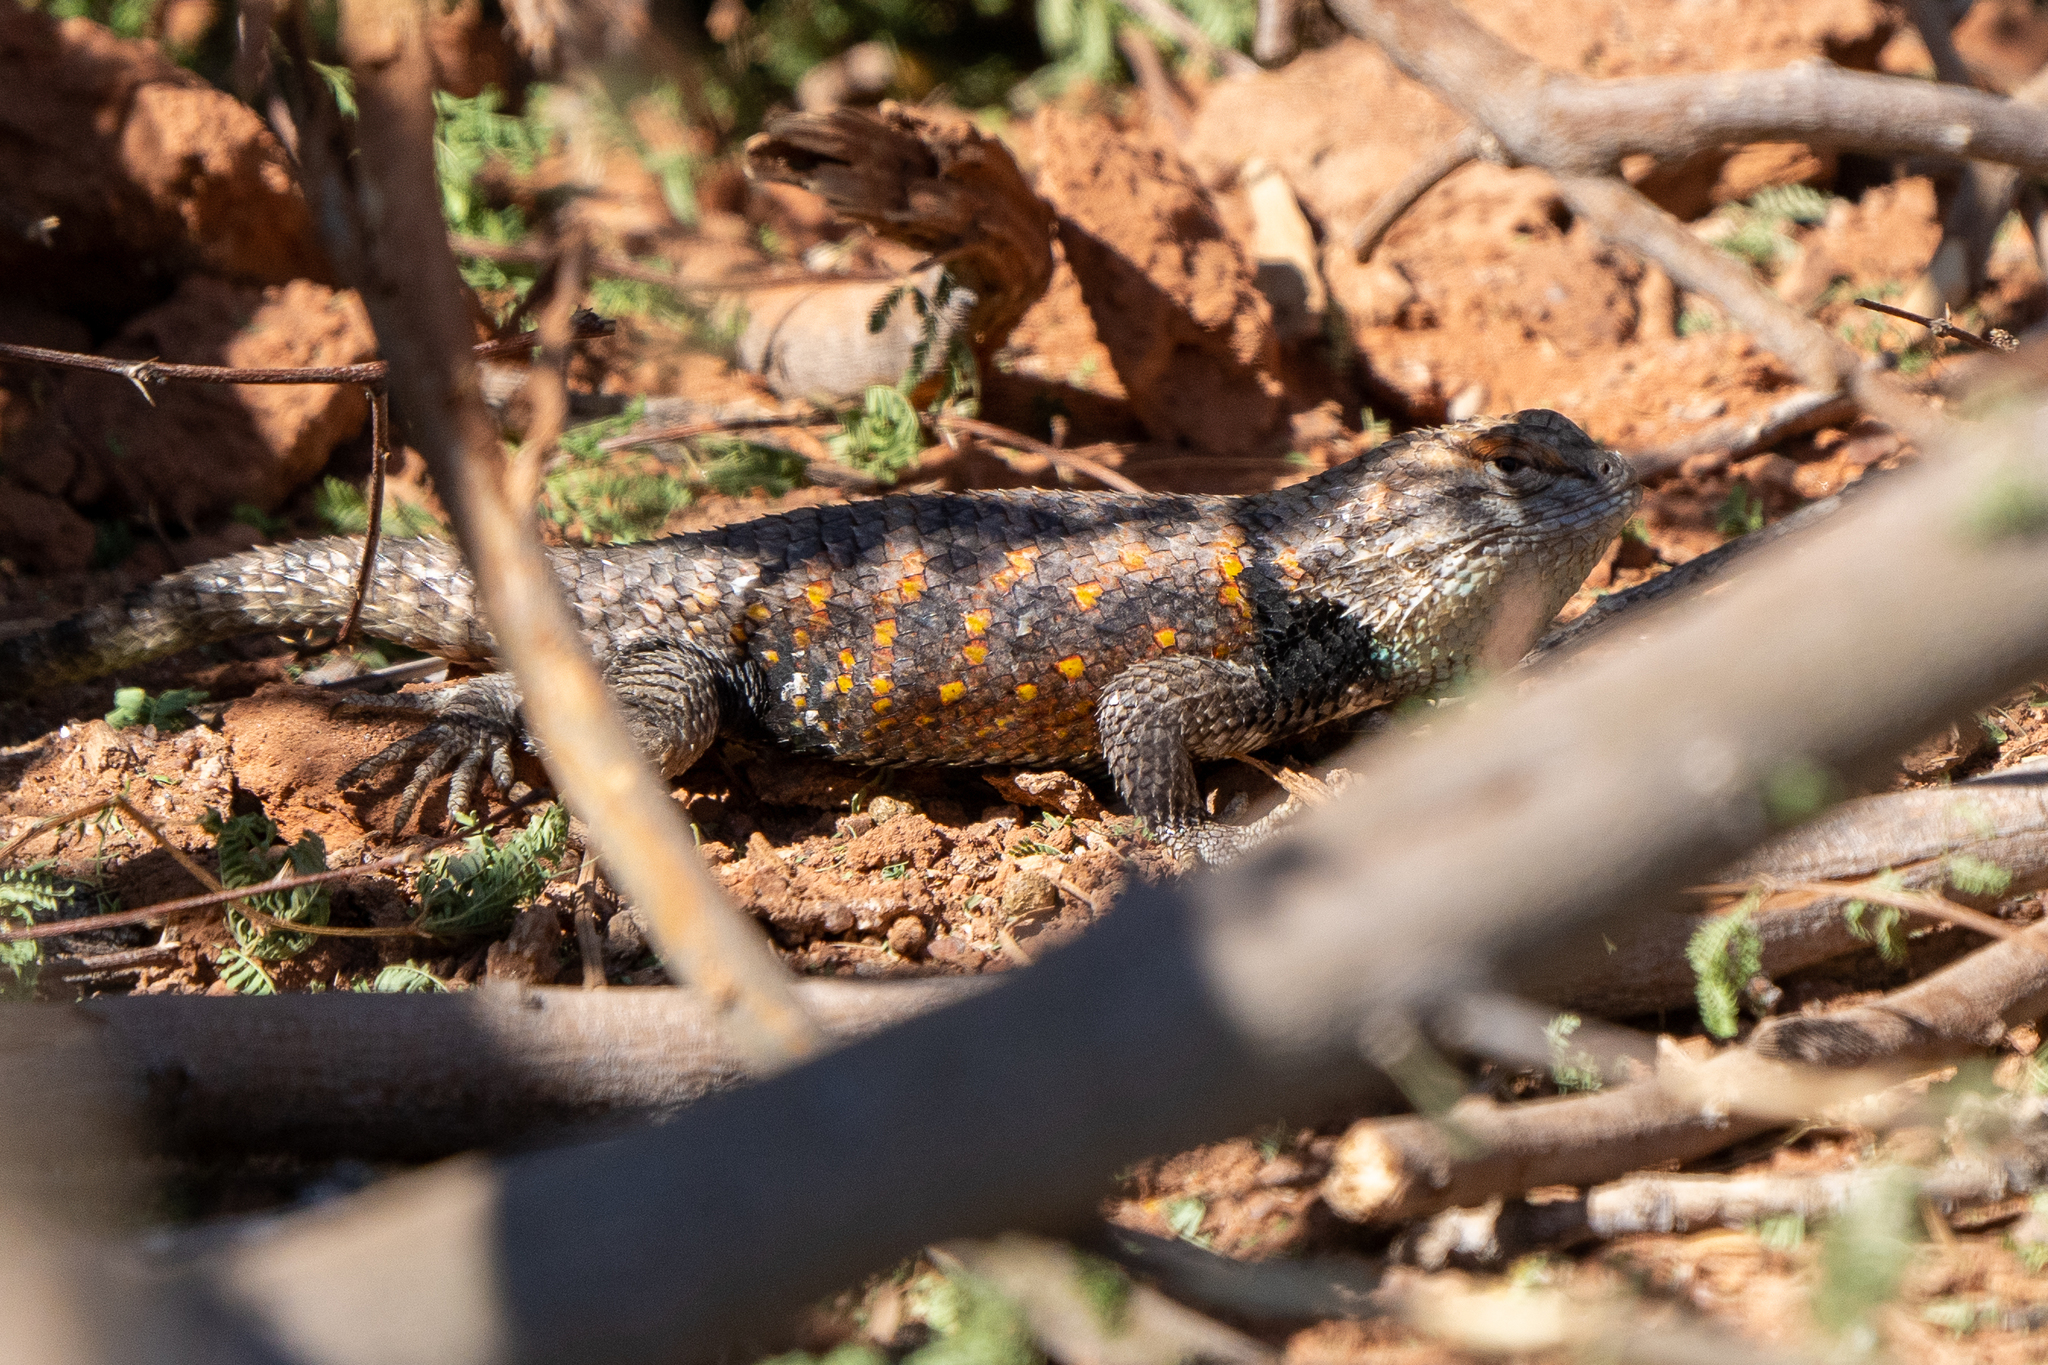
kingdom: Animalia
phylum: Chordata
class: Squamata
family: Phrynosomatidae
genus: Sceloporus
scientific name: Sceloporus uniformis
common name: Yellow-backed spiny lizard
